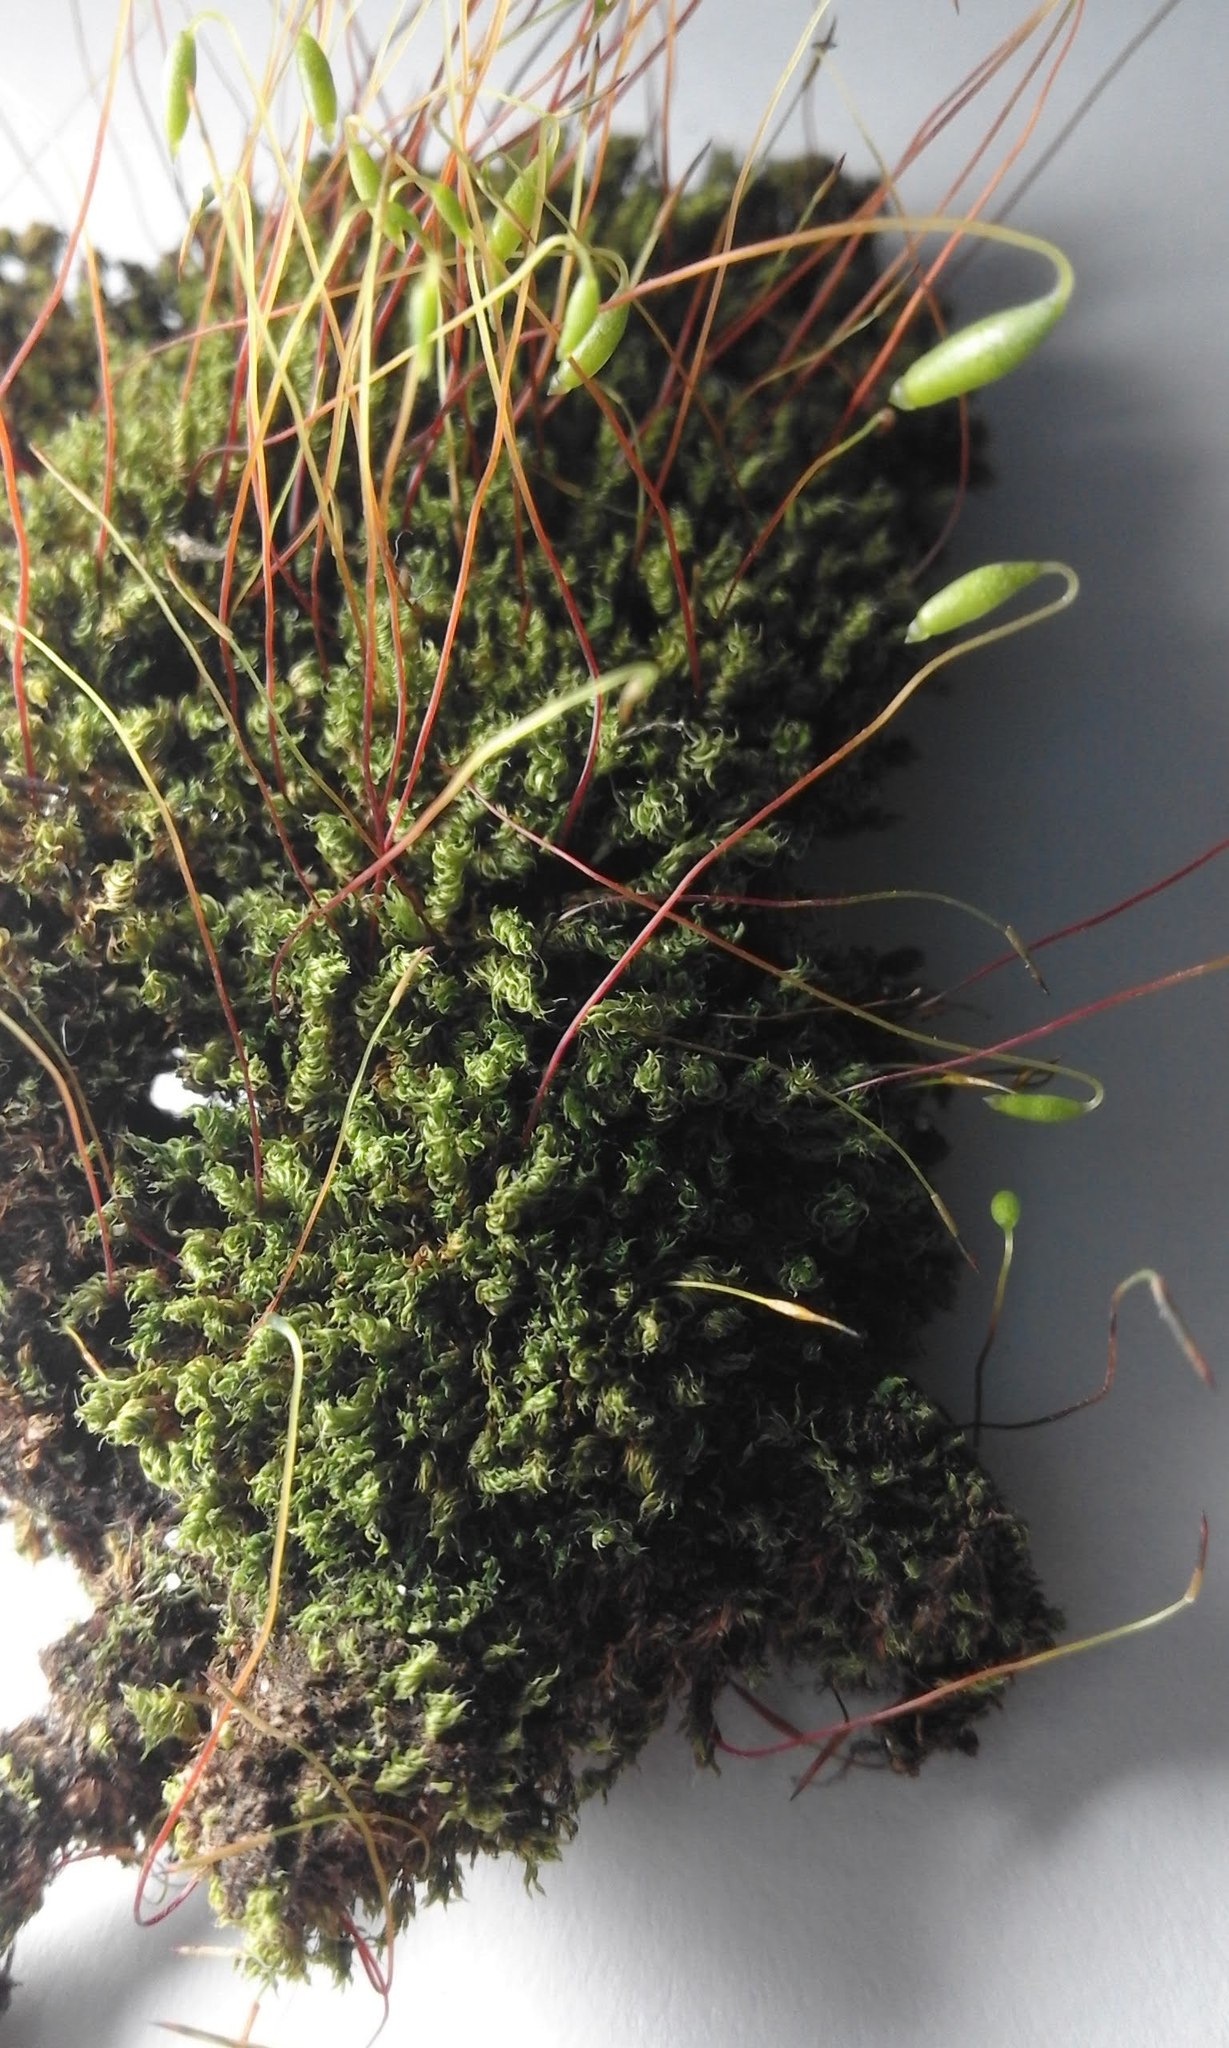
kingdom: Plantae
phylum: Bryophyta
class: Bryopsida
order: Bryales
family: Bryaceae
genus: Rosulabryum
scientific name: Rosulabryum capillare
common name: Capillary thread-moss
